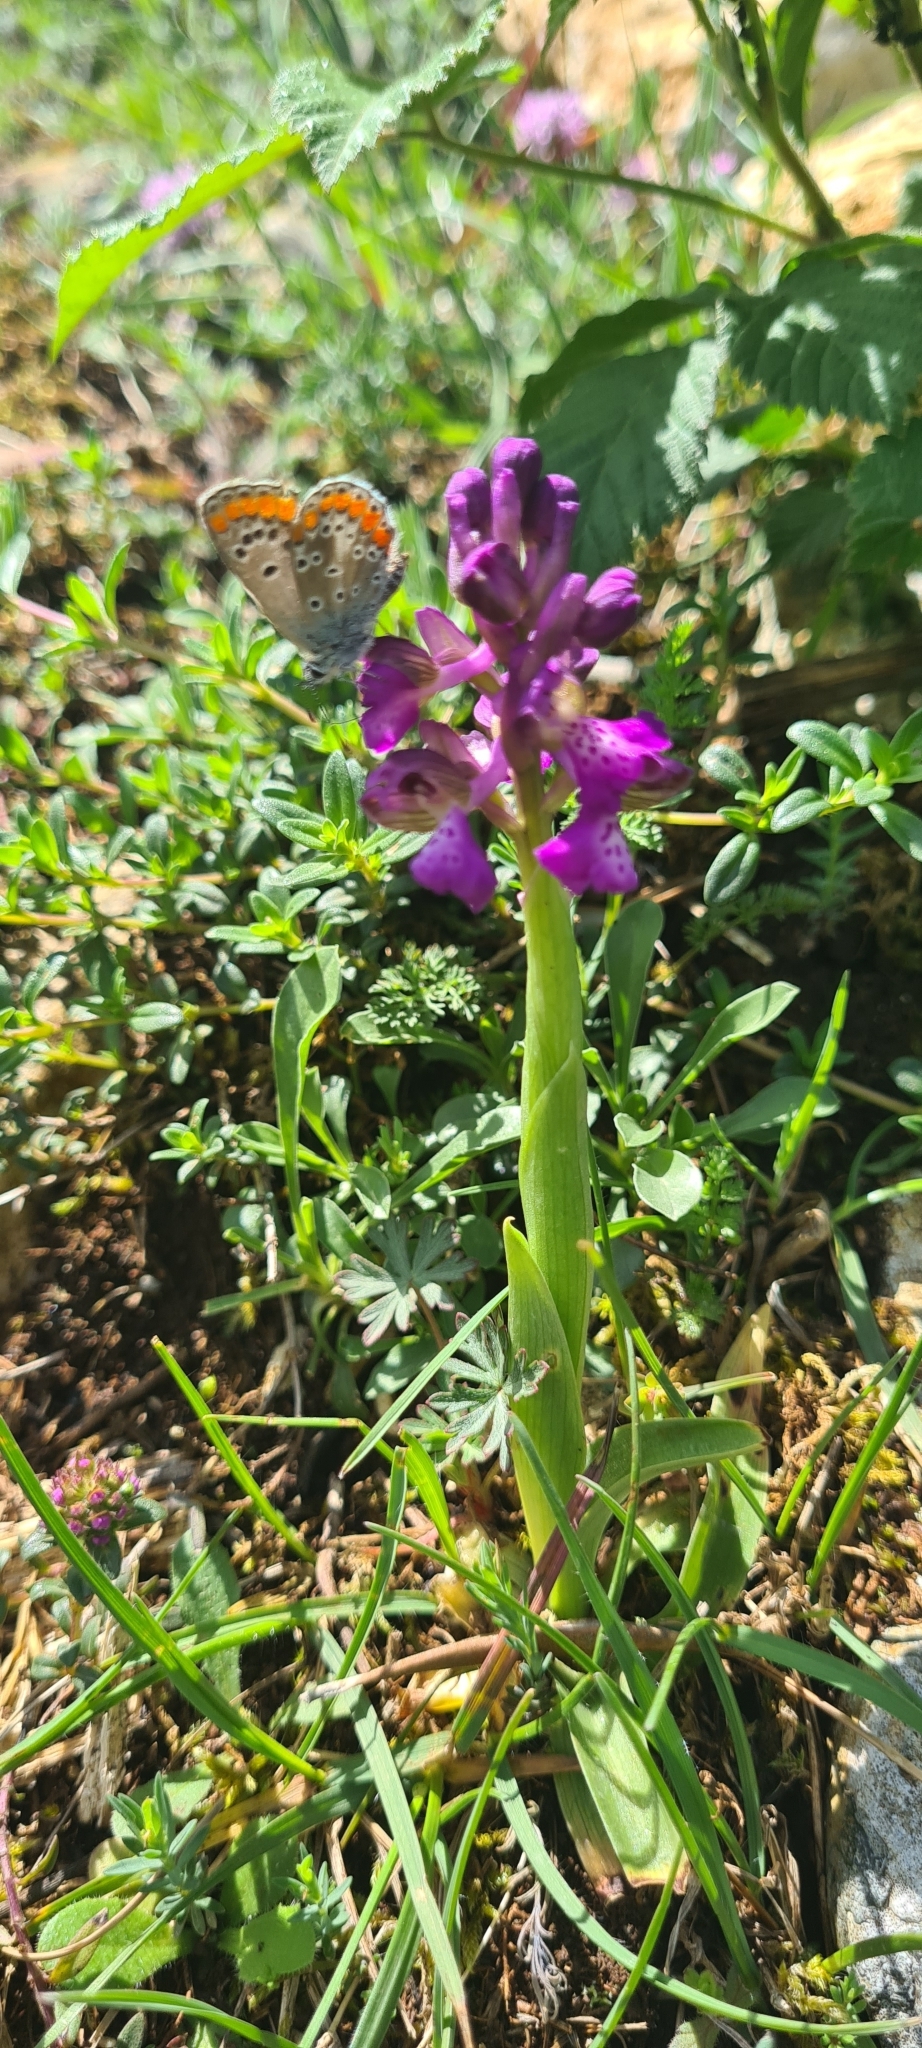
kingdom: Plantae
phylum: Tracheophyta
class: Liliopsida
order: Asparagales
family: Orchidaceae
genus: Anacamptis
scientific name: Anacamptis morio
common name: Green-winged orchid
